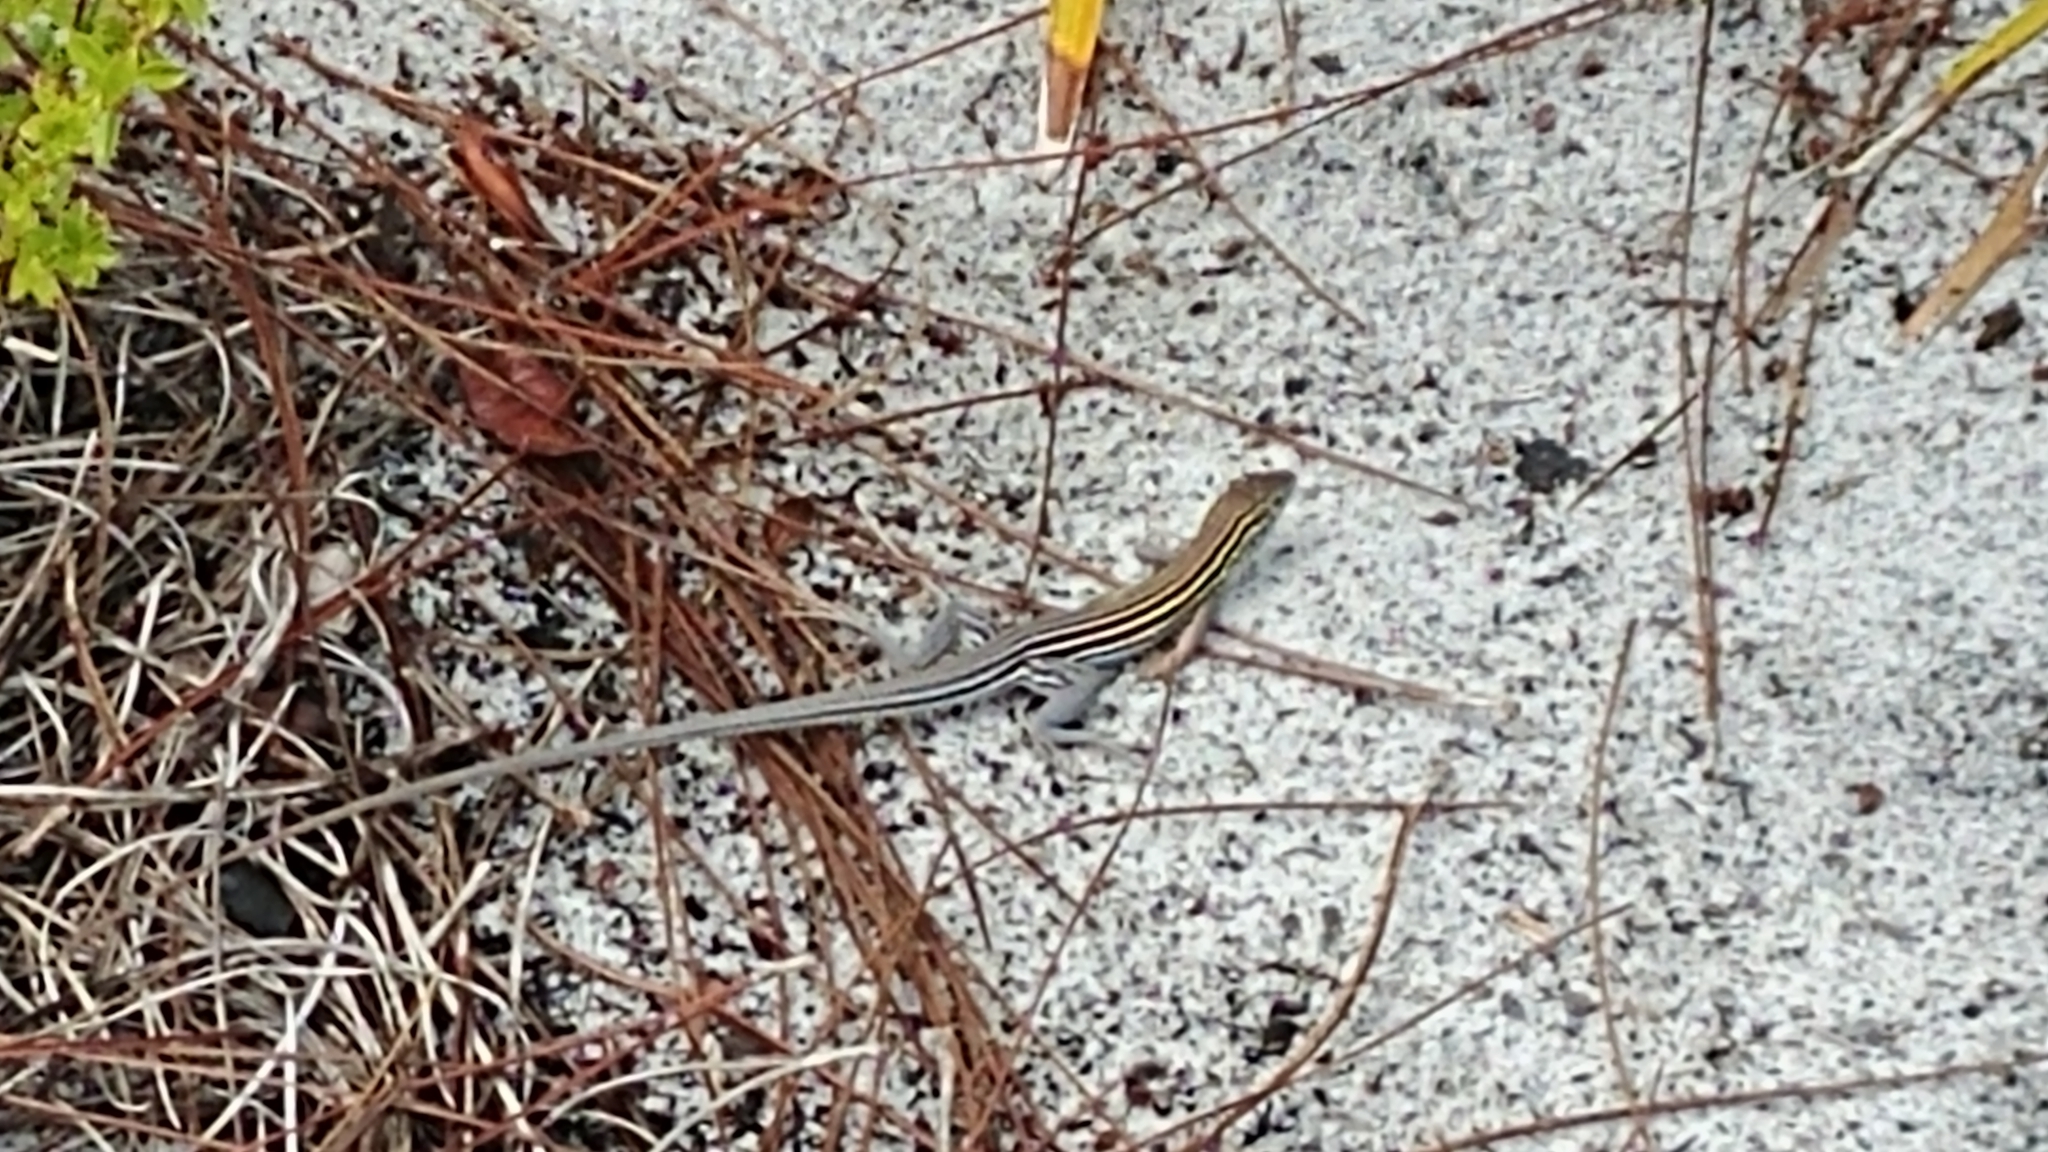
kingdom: Animalia
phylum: Chordata
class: Squamata
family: Teiidae
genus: Aspidoscelis
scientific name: Aspidoscelis sexlineatus
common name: Six-lined racerunner
